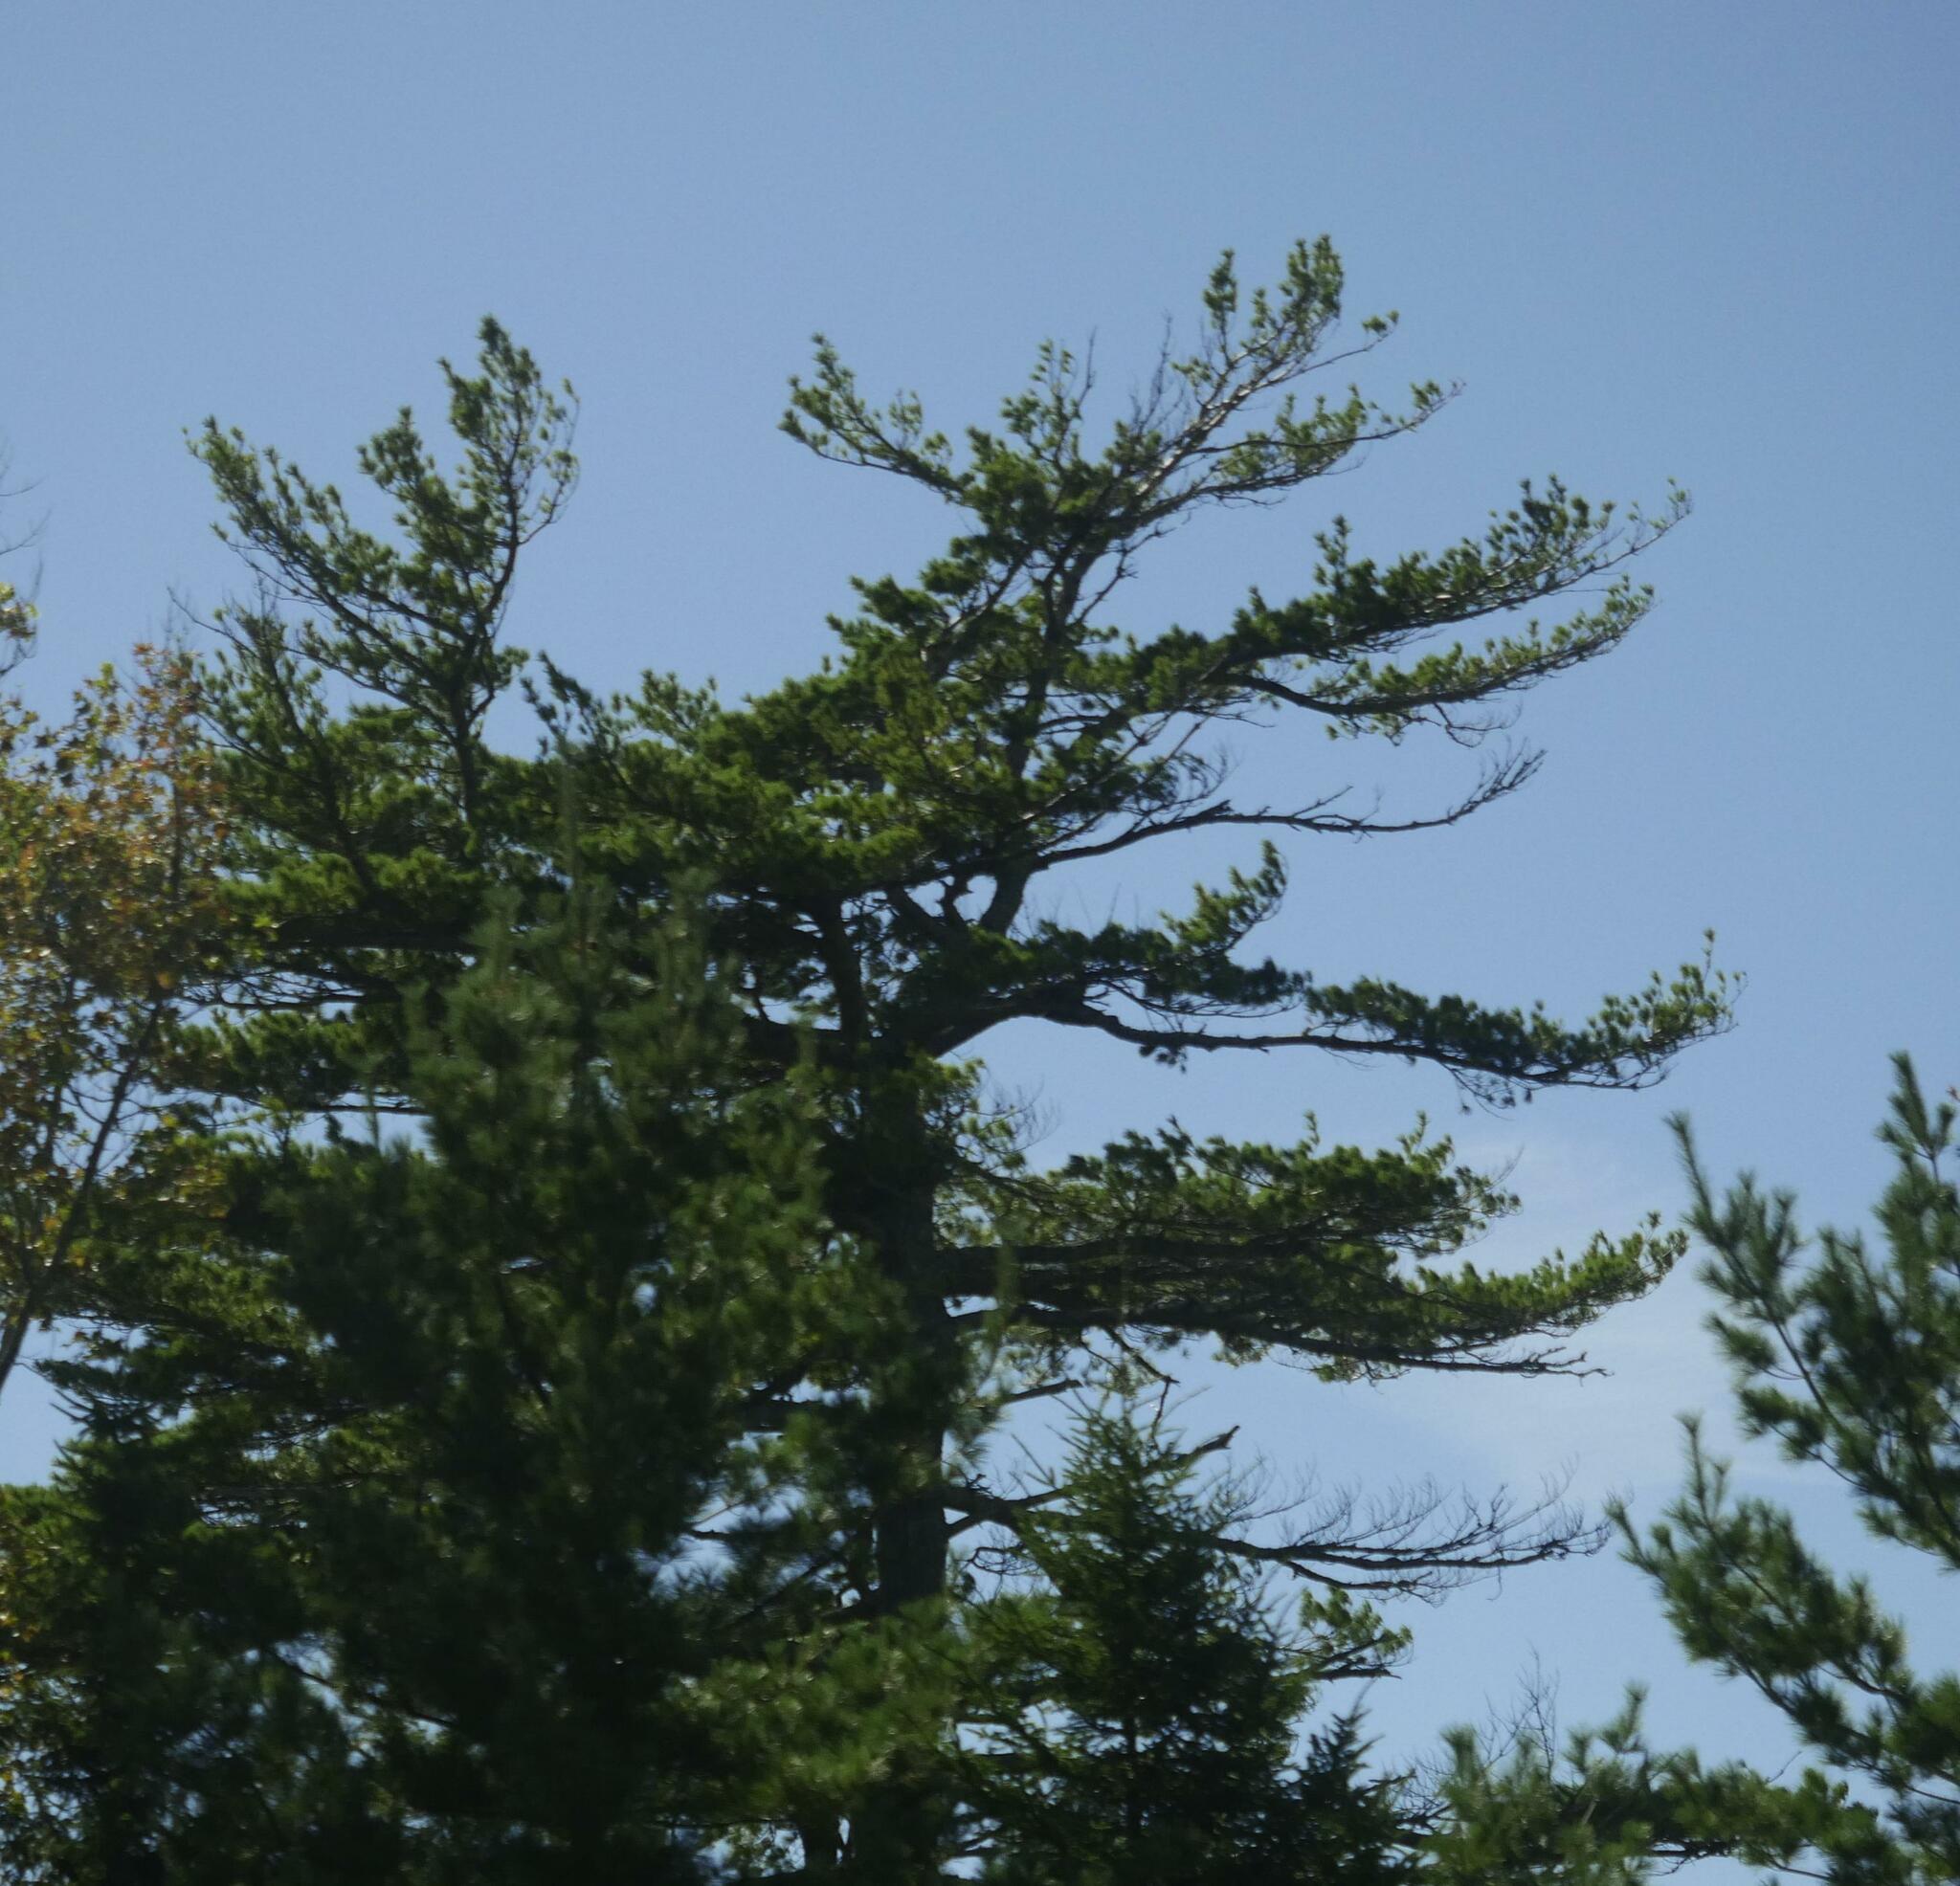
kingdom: Plantae
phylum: Tracheophyta
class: Pinopsida
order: Pinales
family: Pinaceae
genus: Pinus
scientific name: Pinus strobus
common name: Weymouth pine
